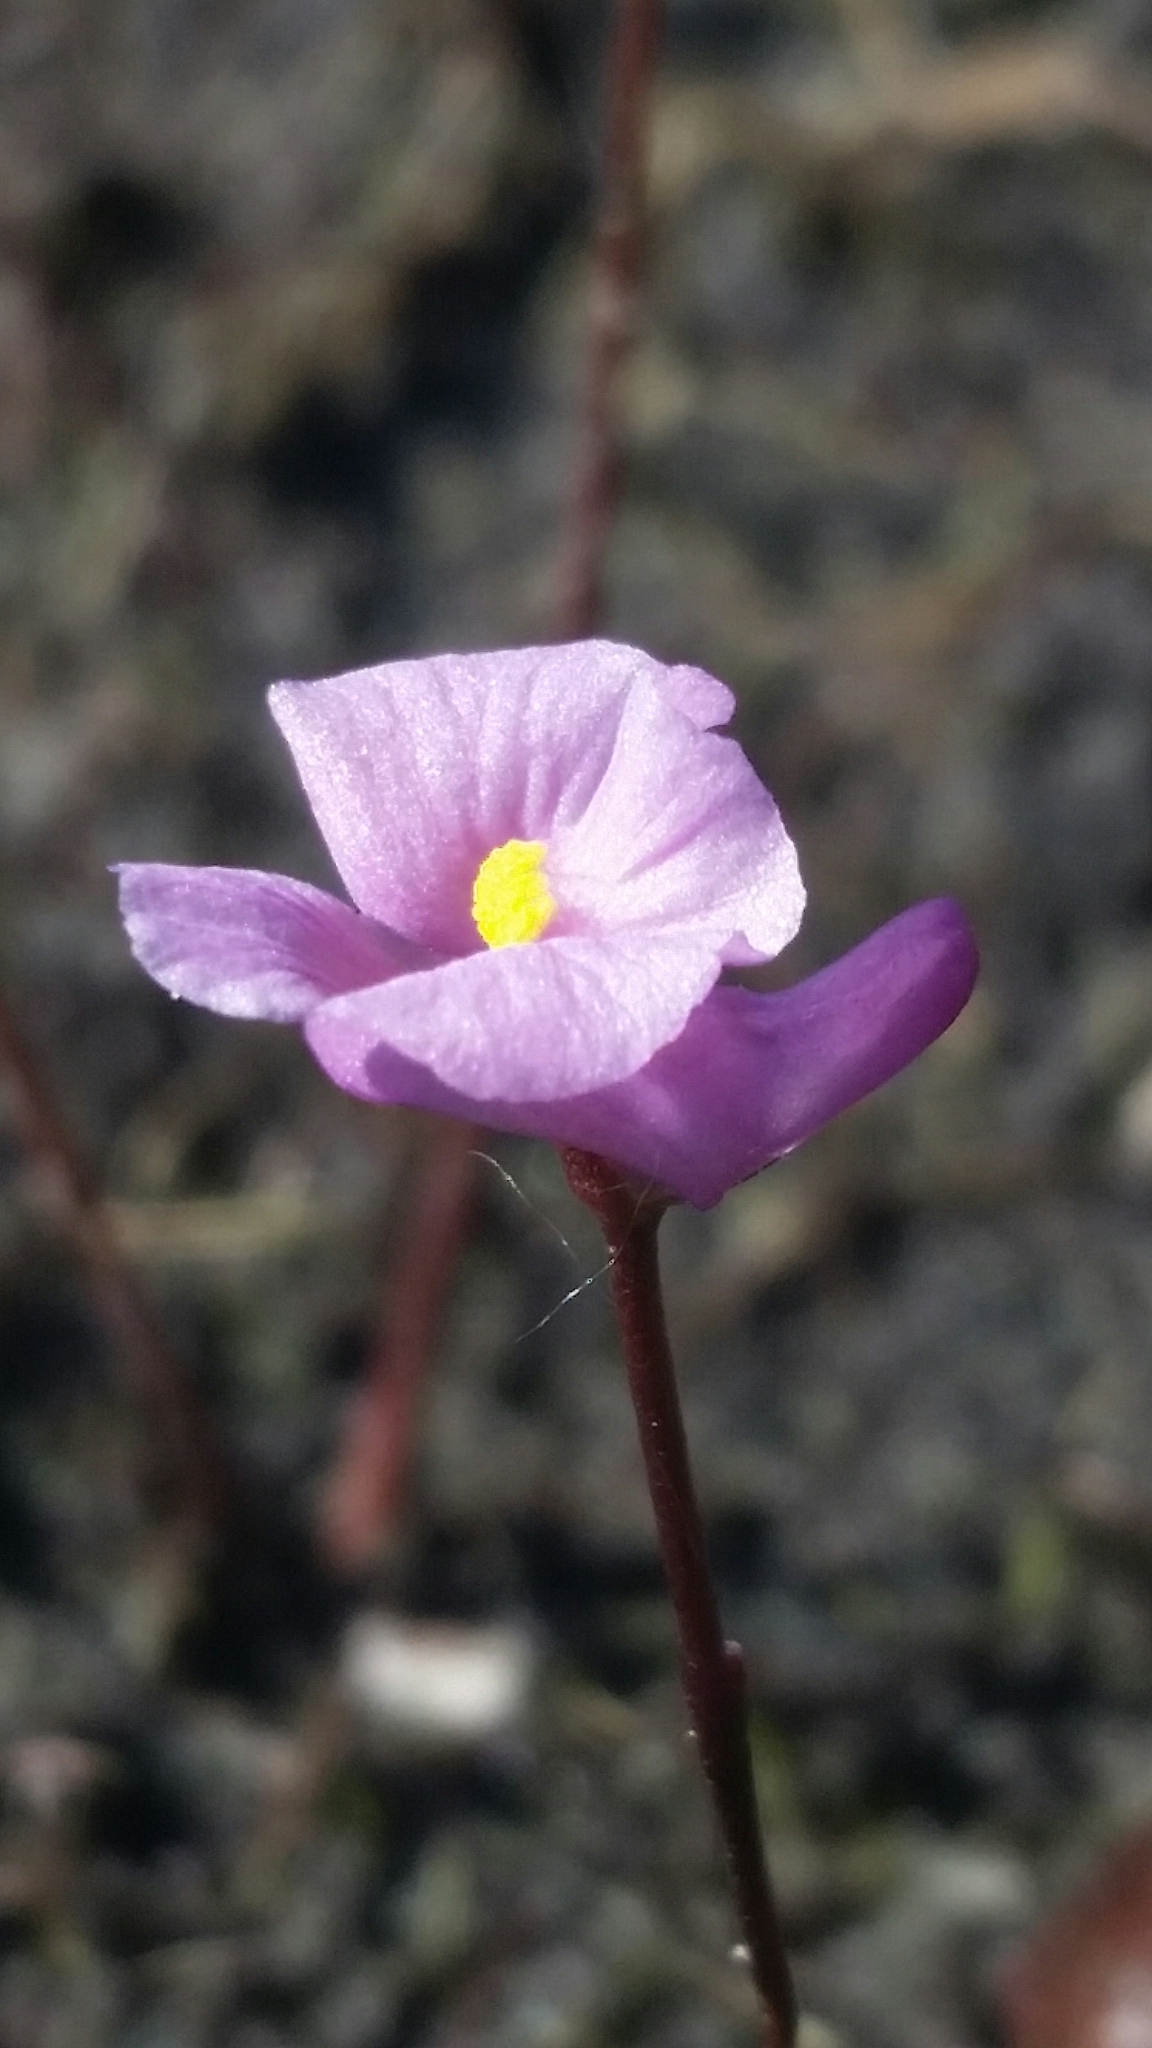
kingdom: Plantae
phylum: Tracheophyta
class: Magnoliopsida
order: Lamiales
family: Lentibulariaceae
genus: Utricularia
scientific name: Utricularia resupinata
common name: Northeastern bladderwort
